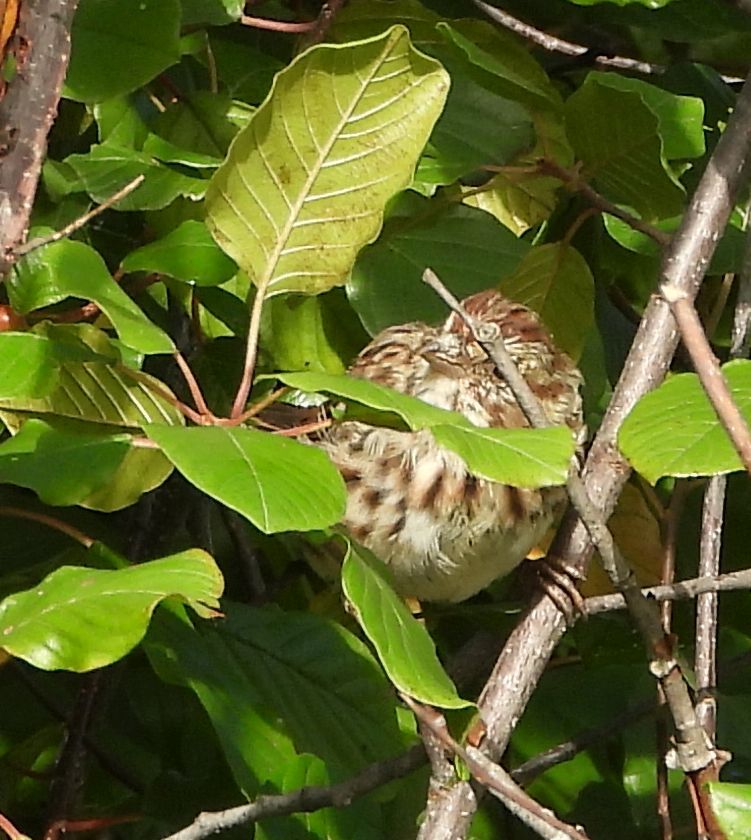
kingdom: Animalia
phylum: Chordata
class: Aves
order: Passeriformes
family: Passerellidae
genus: Melospiza
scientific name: Melospiza melodia
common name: Song sparrow
